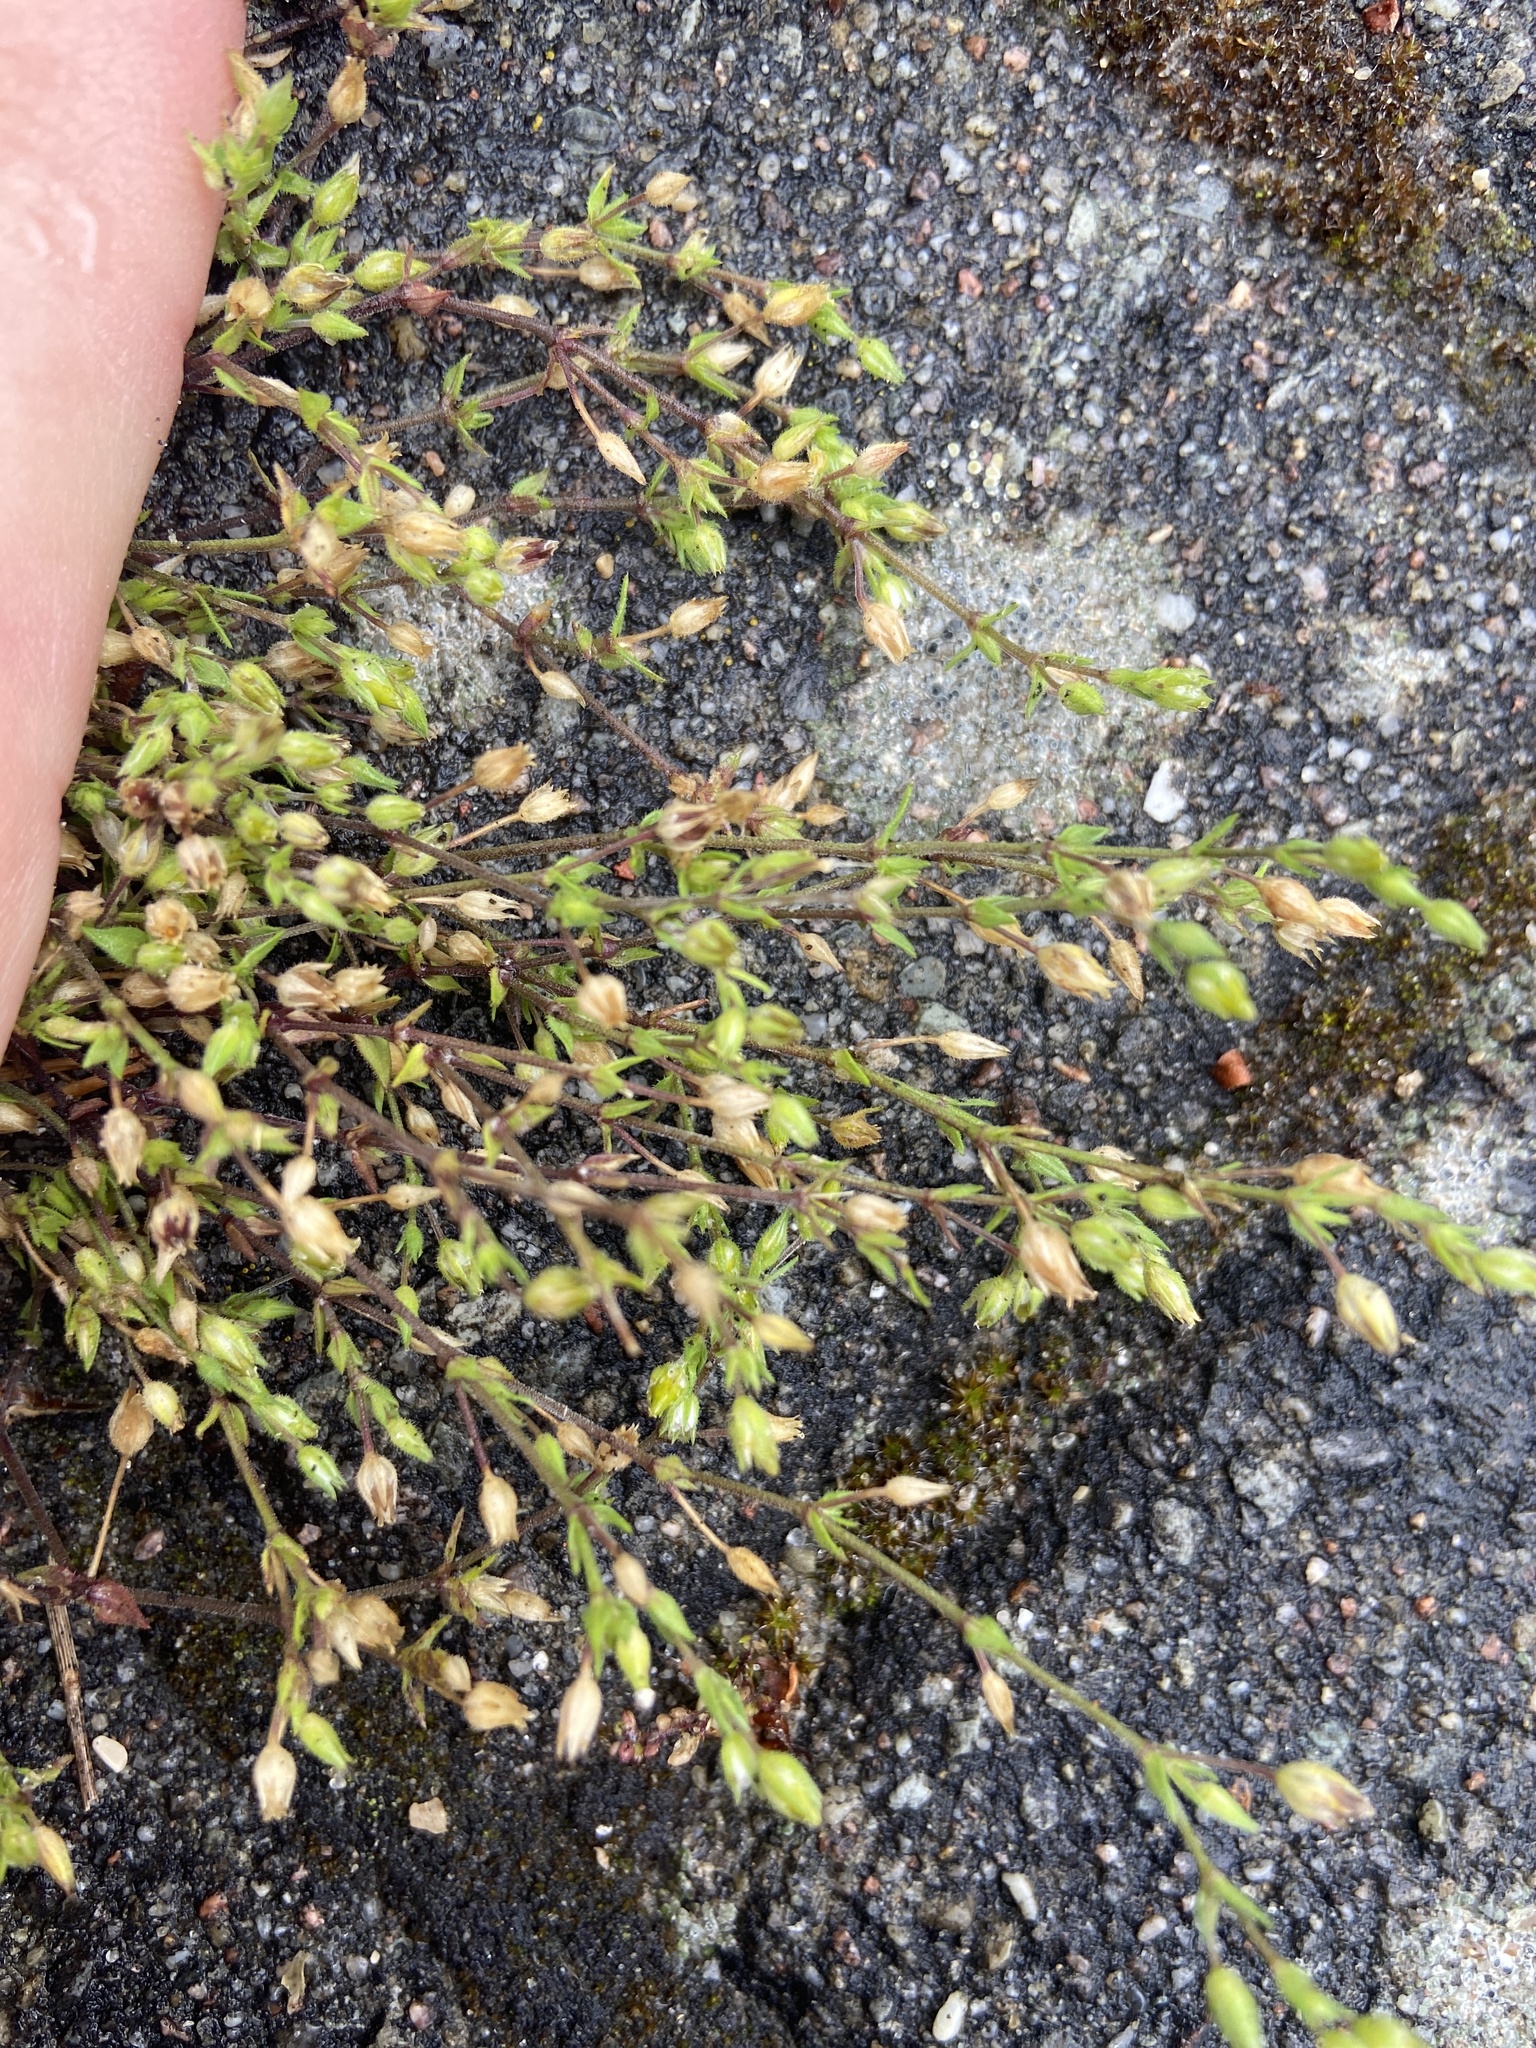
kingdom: Plantae
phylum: Tracheophyta
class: Magnoliopsida
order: Caryophyllales
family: Caryophyllaceae
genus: Arenaria
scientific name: Arenaria serpyllifolia
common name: Thyme-leaved sandwort
